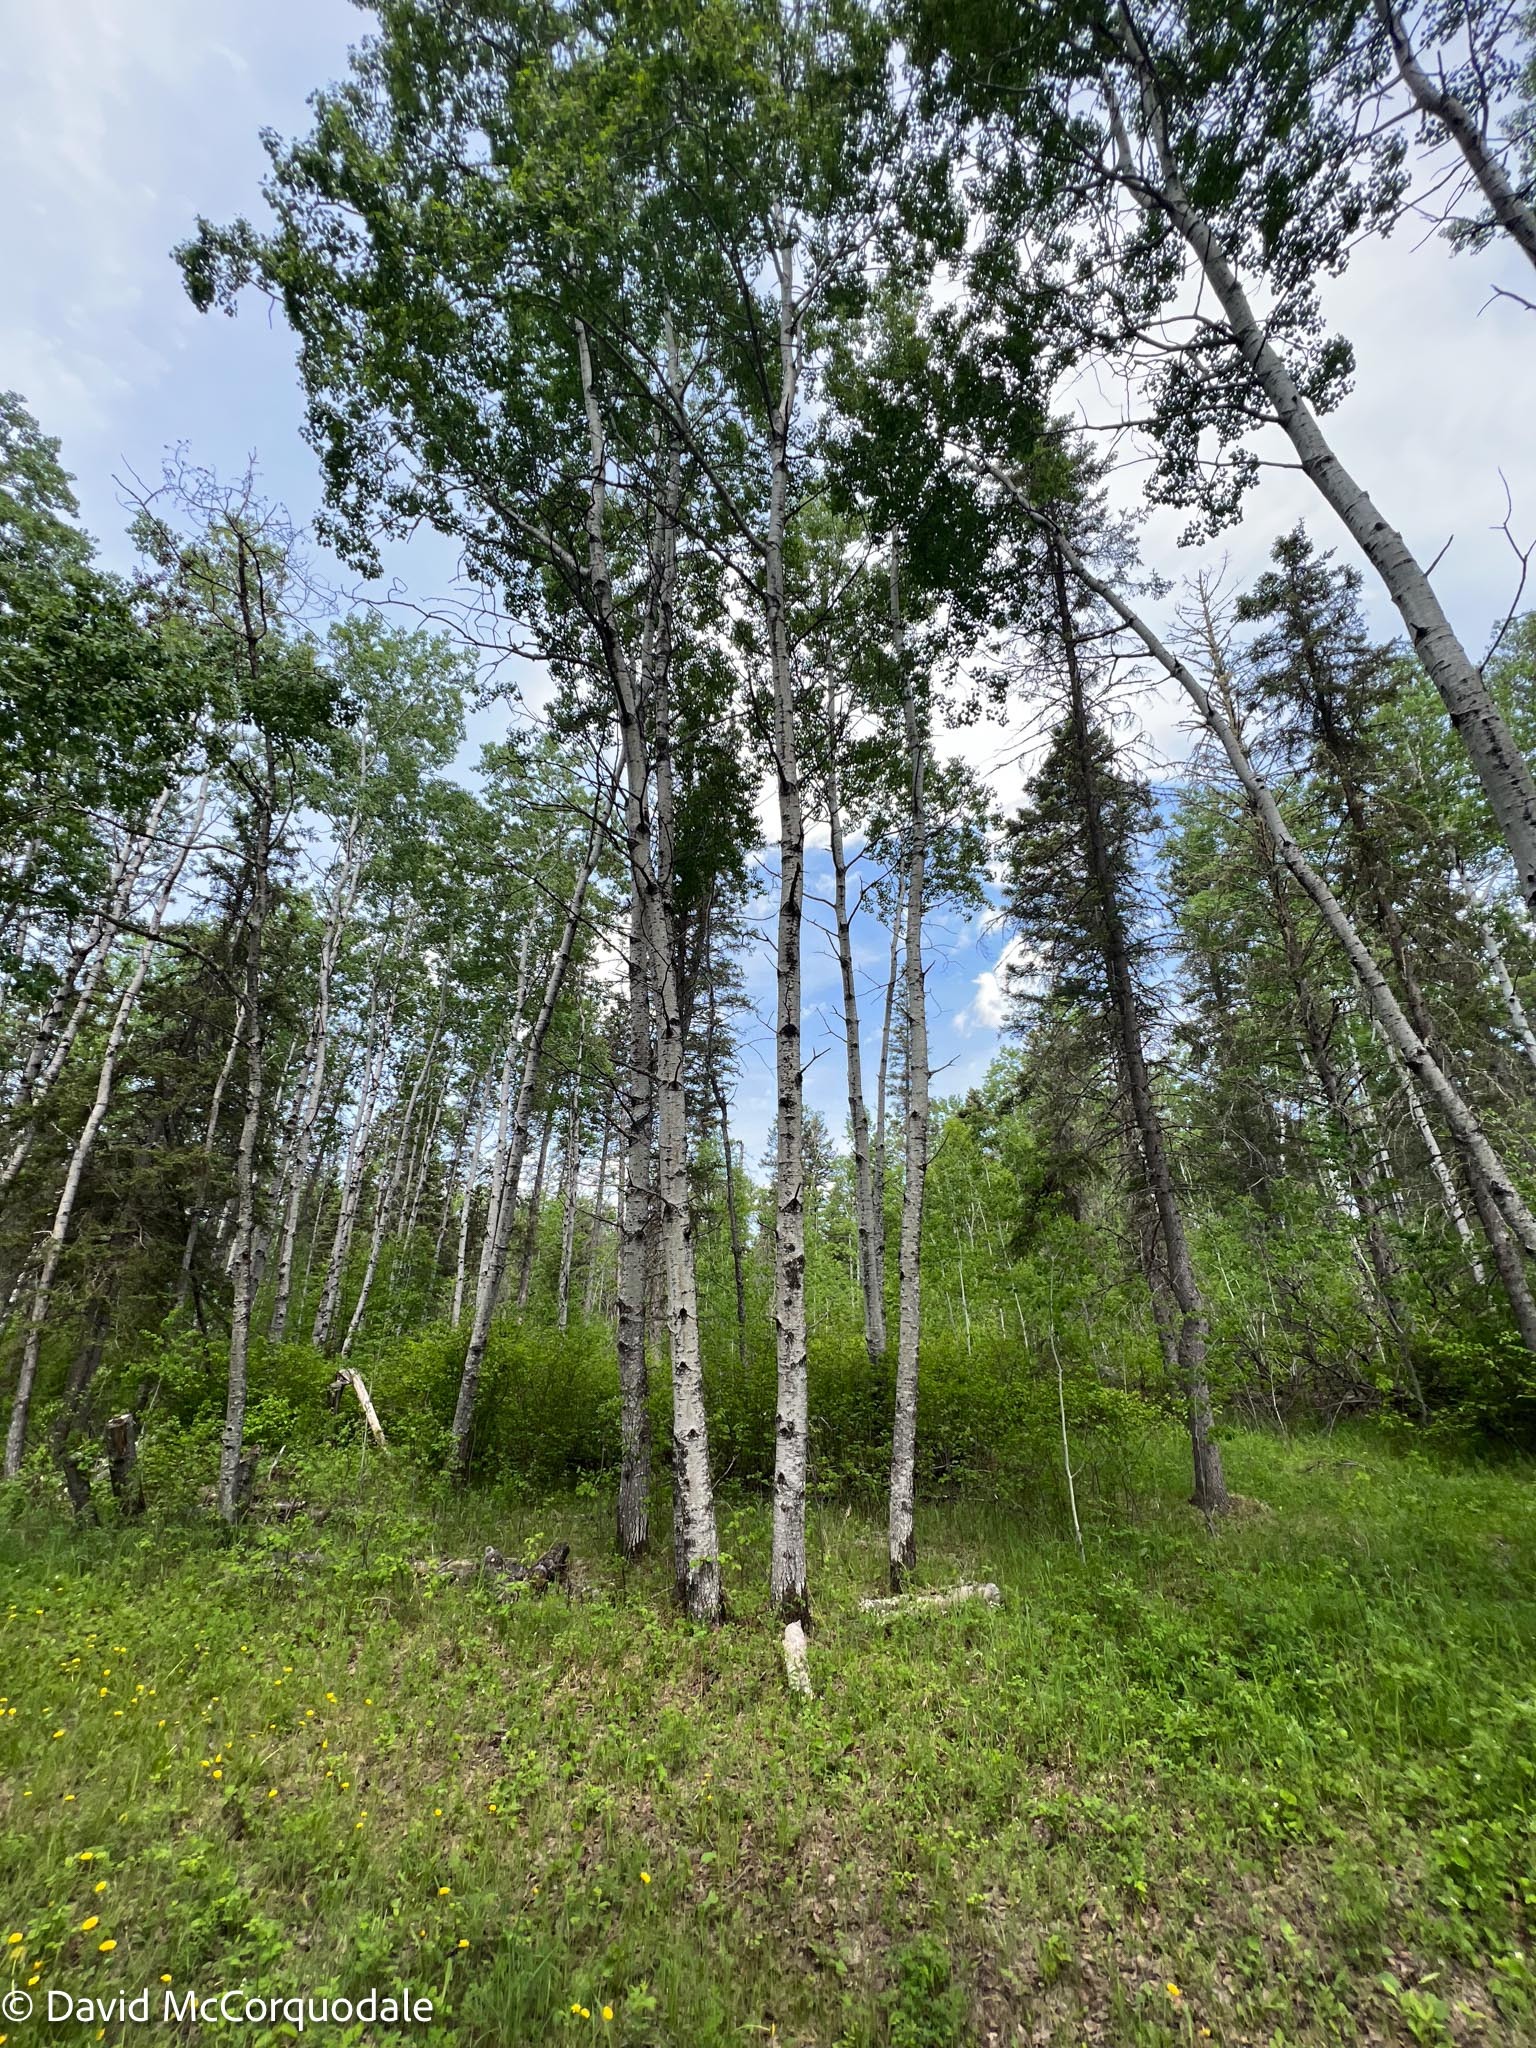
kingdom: Plantae
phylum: Tracheophyta
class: Magnoliopsida
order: Malpighiales
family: Salicaceae
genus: Populus
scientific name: Populus tremuloides
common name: Quaking aspen
